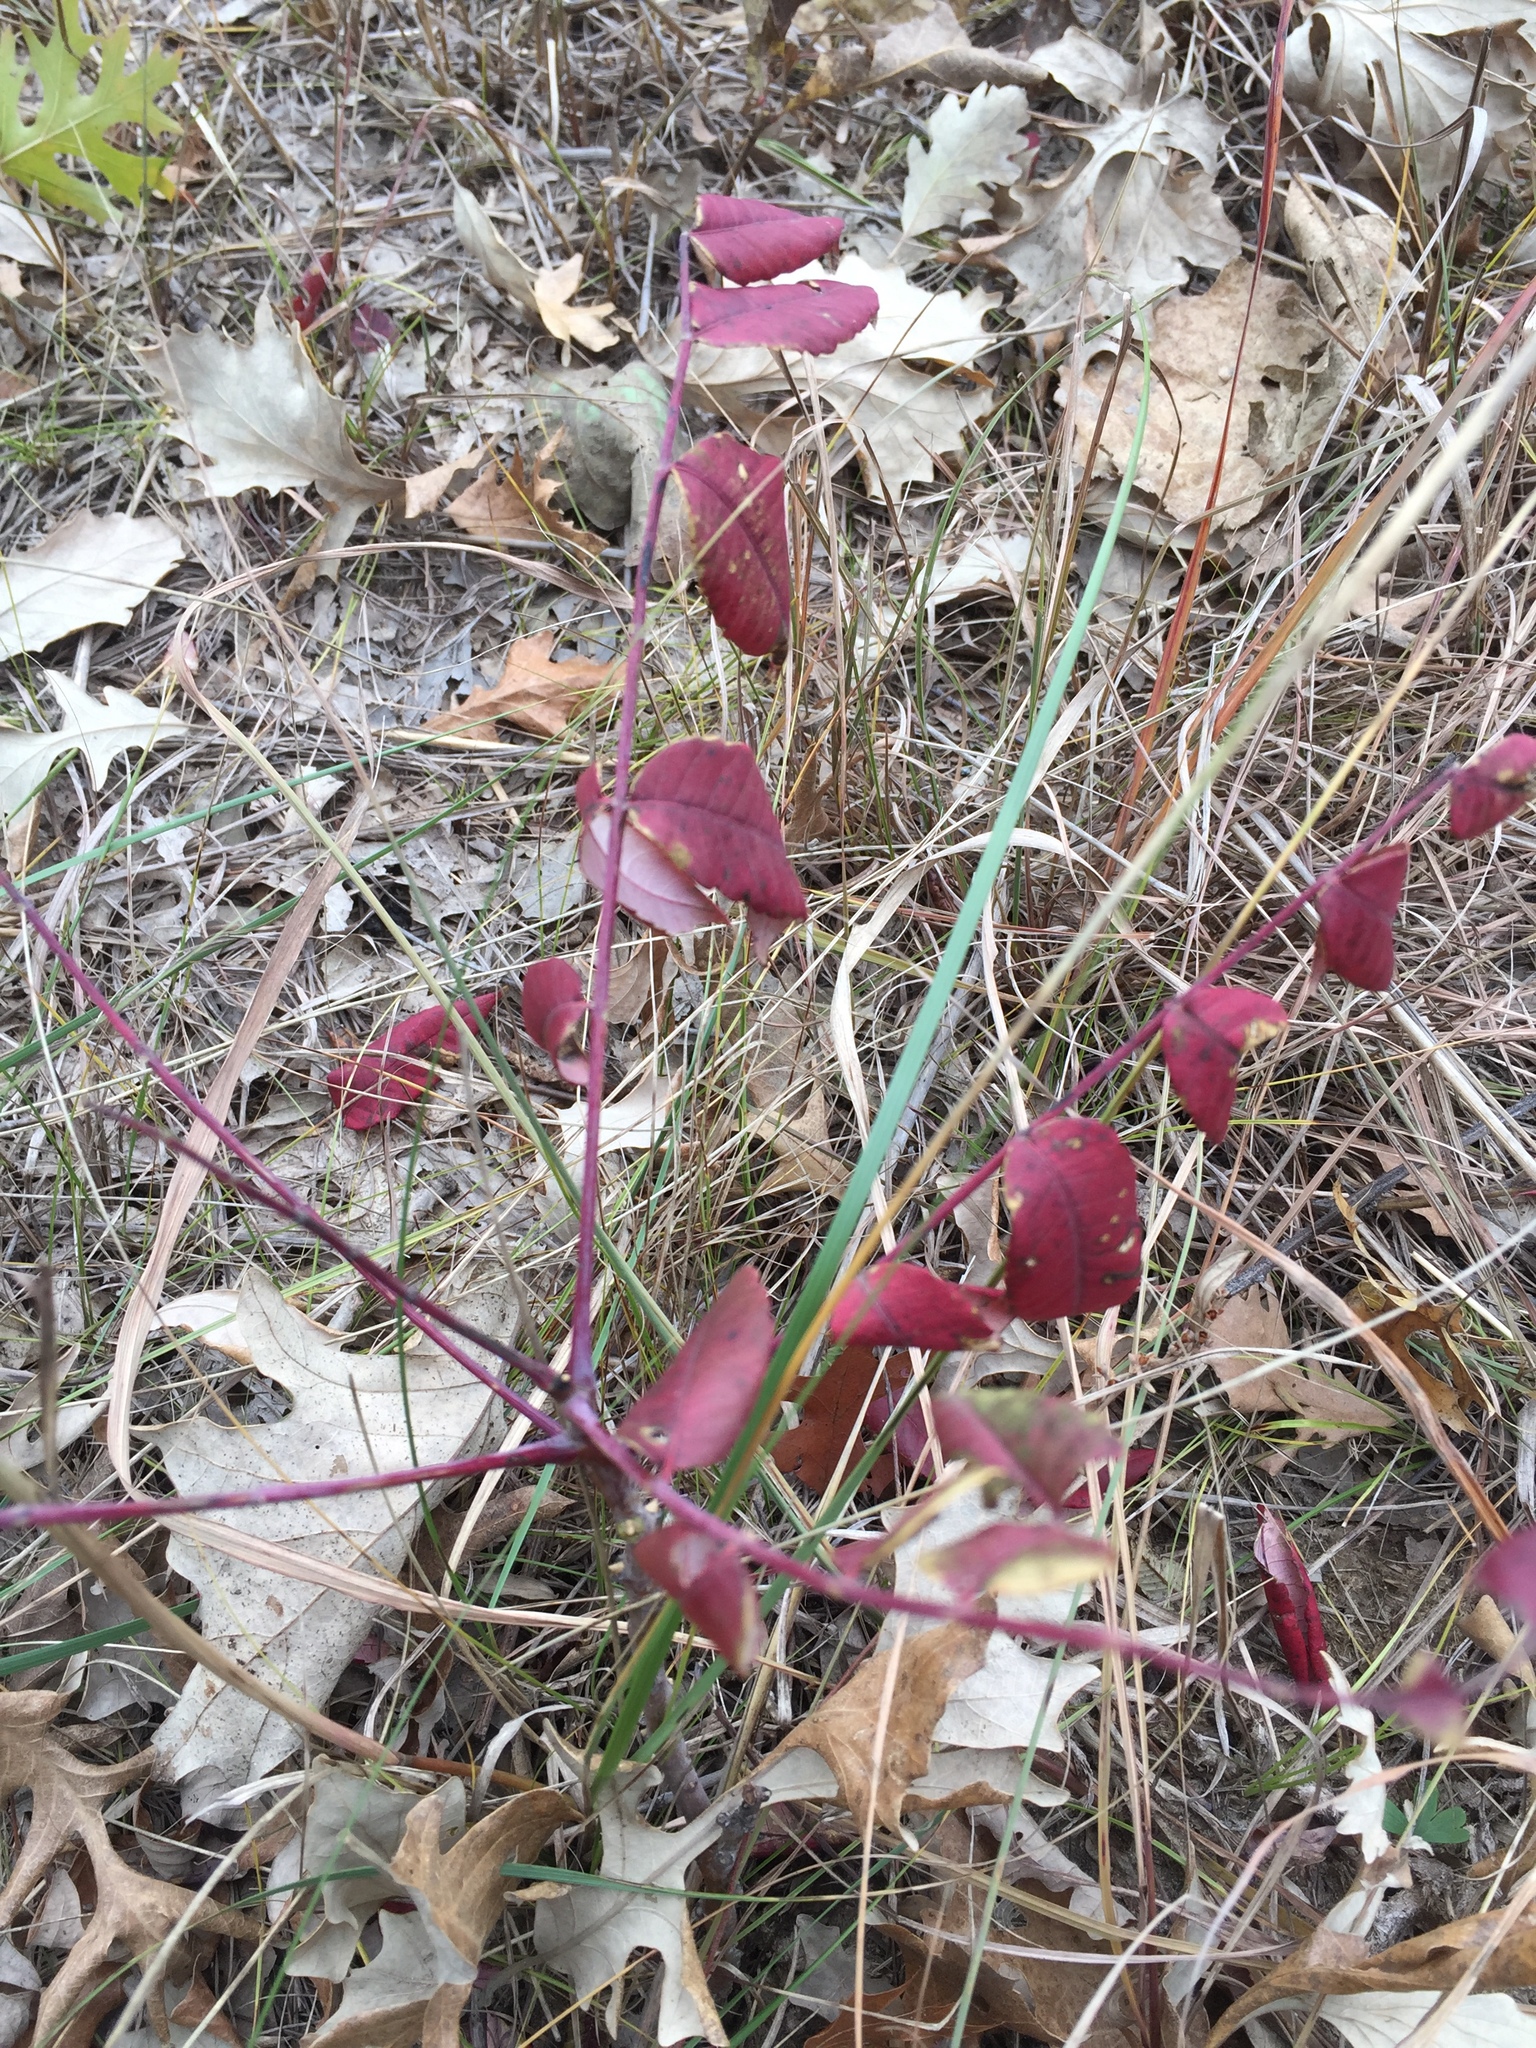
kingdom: Plantae
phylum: Tracheophyta
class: Magnoliopsida
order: Sapindales
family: Anacardiaceae
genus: Rhus
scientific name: Rhus glabra
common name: Scarlet sumac
